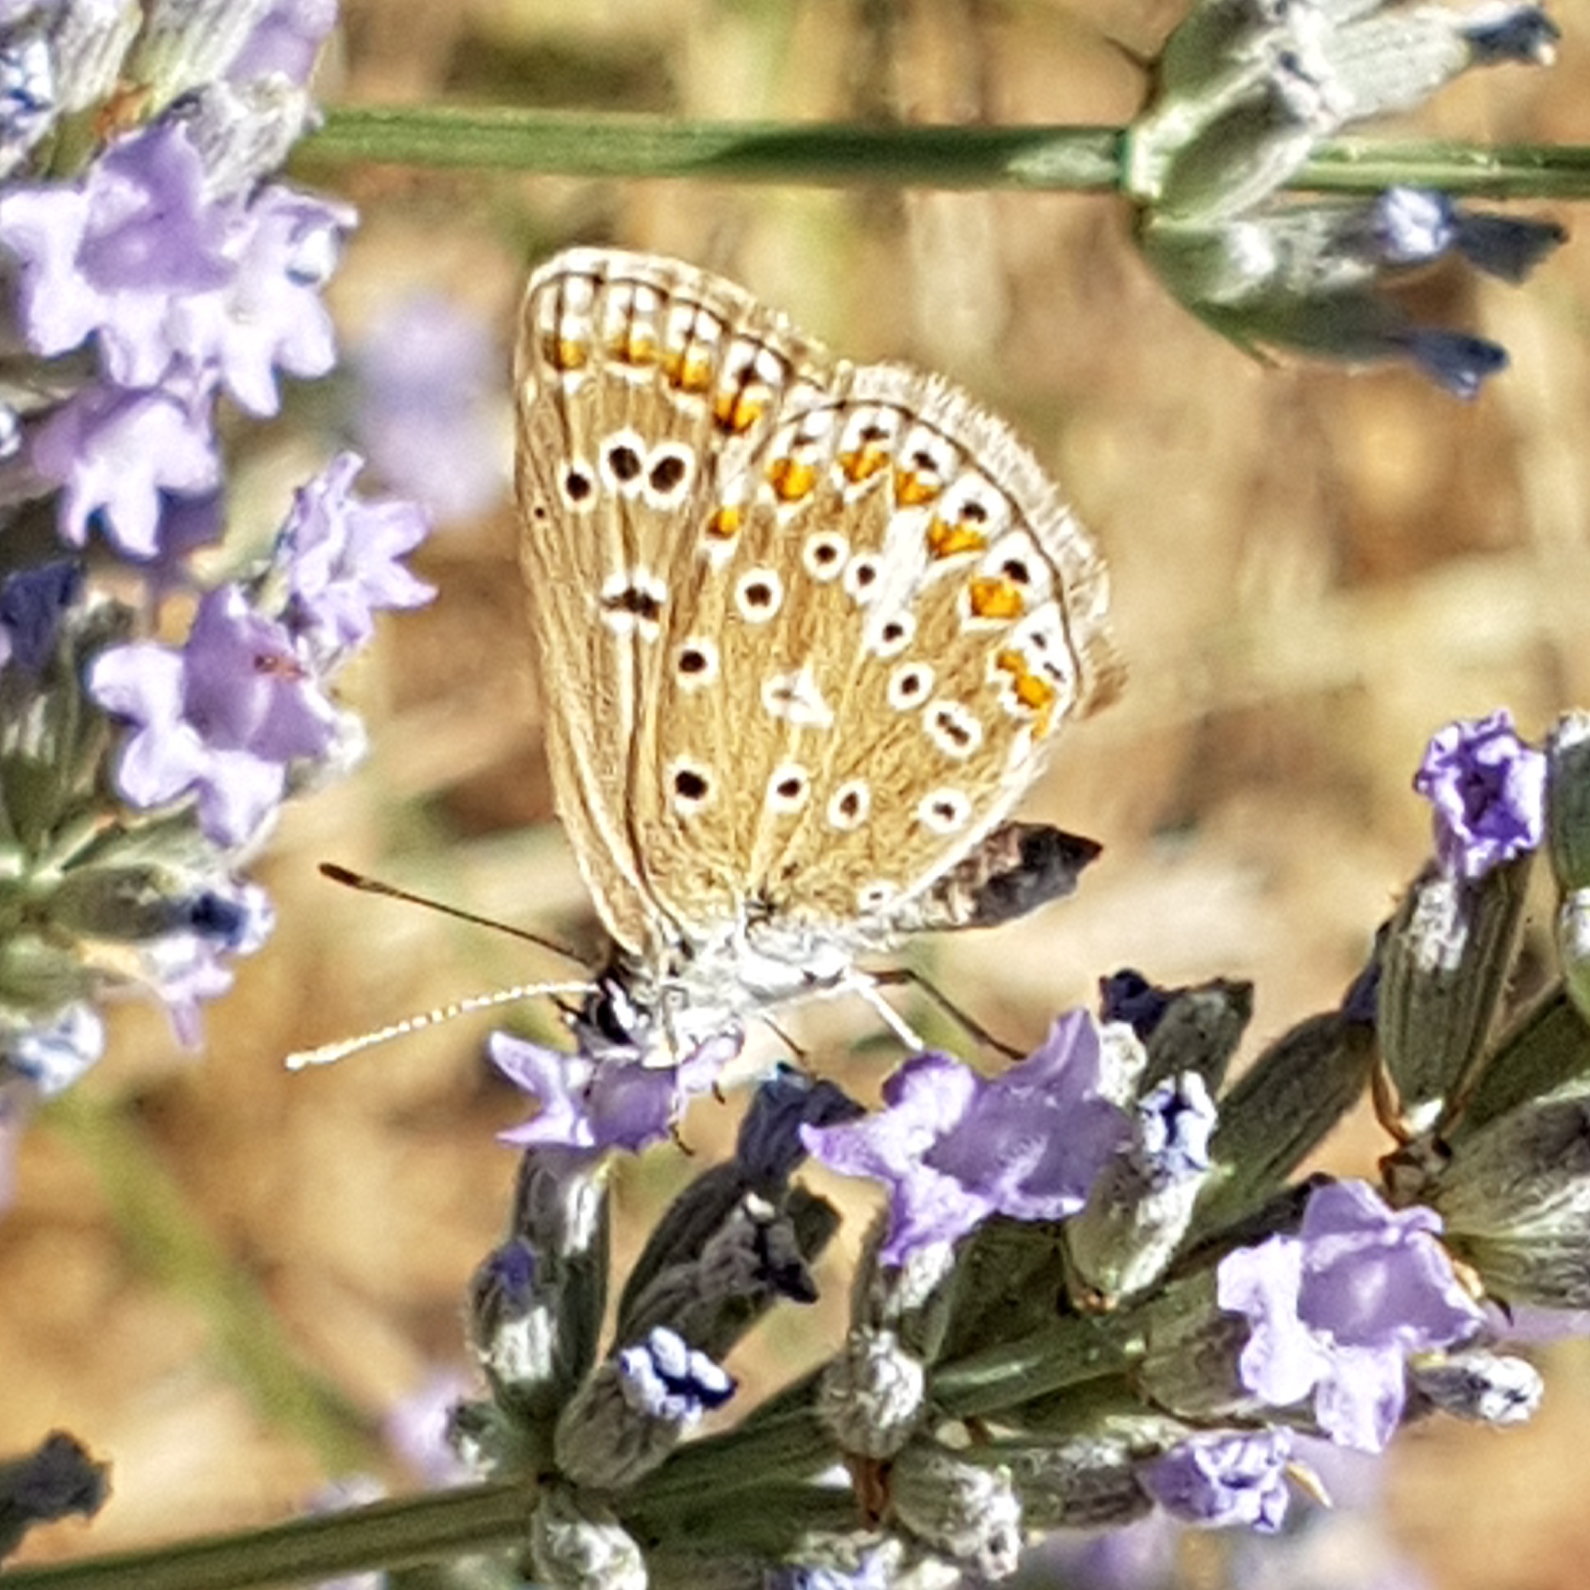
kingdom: Animalia
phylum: Arthropoda
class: Insecta
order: Lepidoptera
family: Lycaenidae
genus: Polyommatus
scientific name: Polyommatus icarus
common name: Common blue
